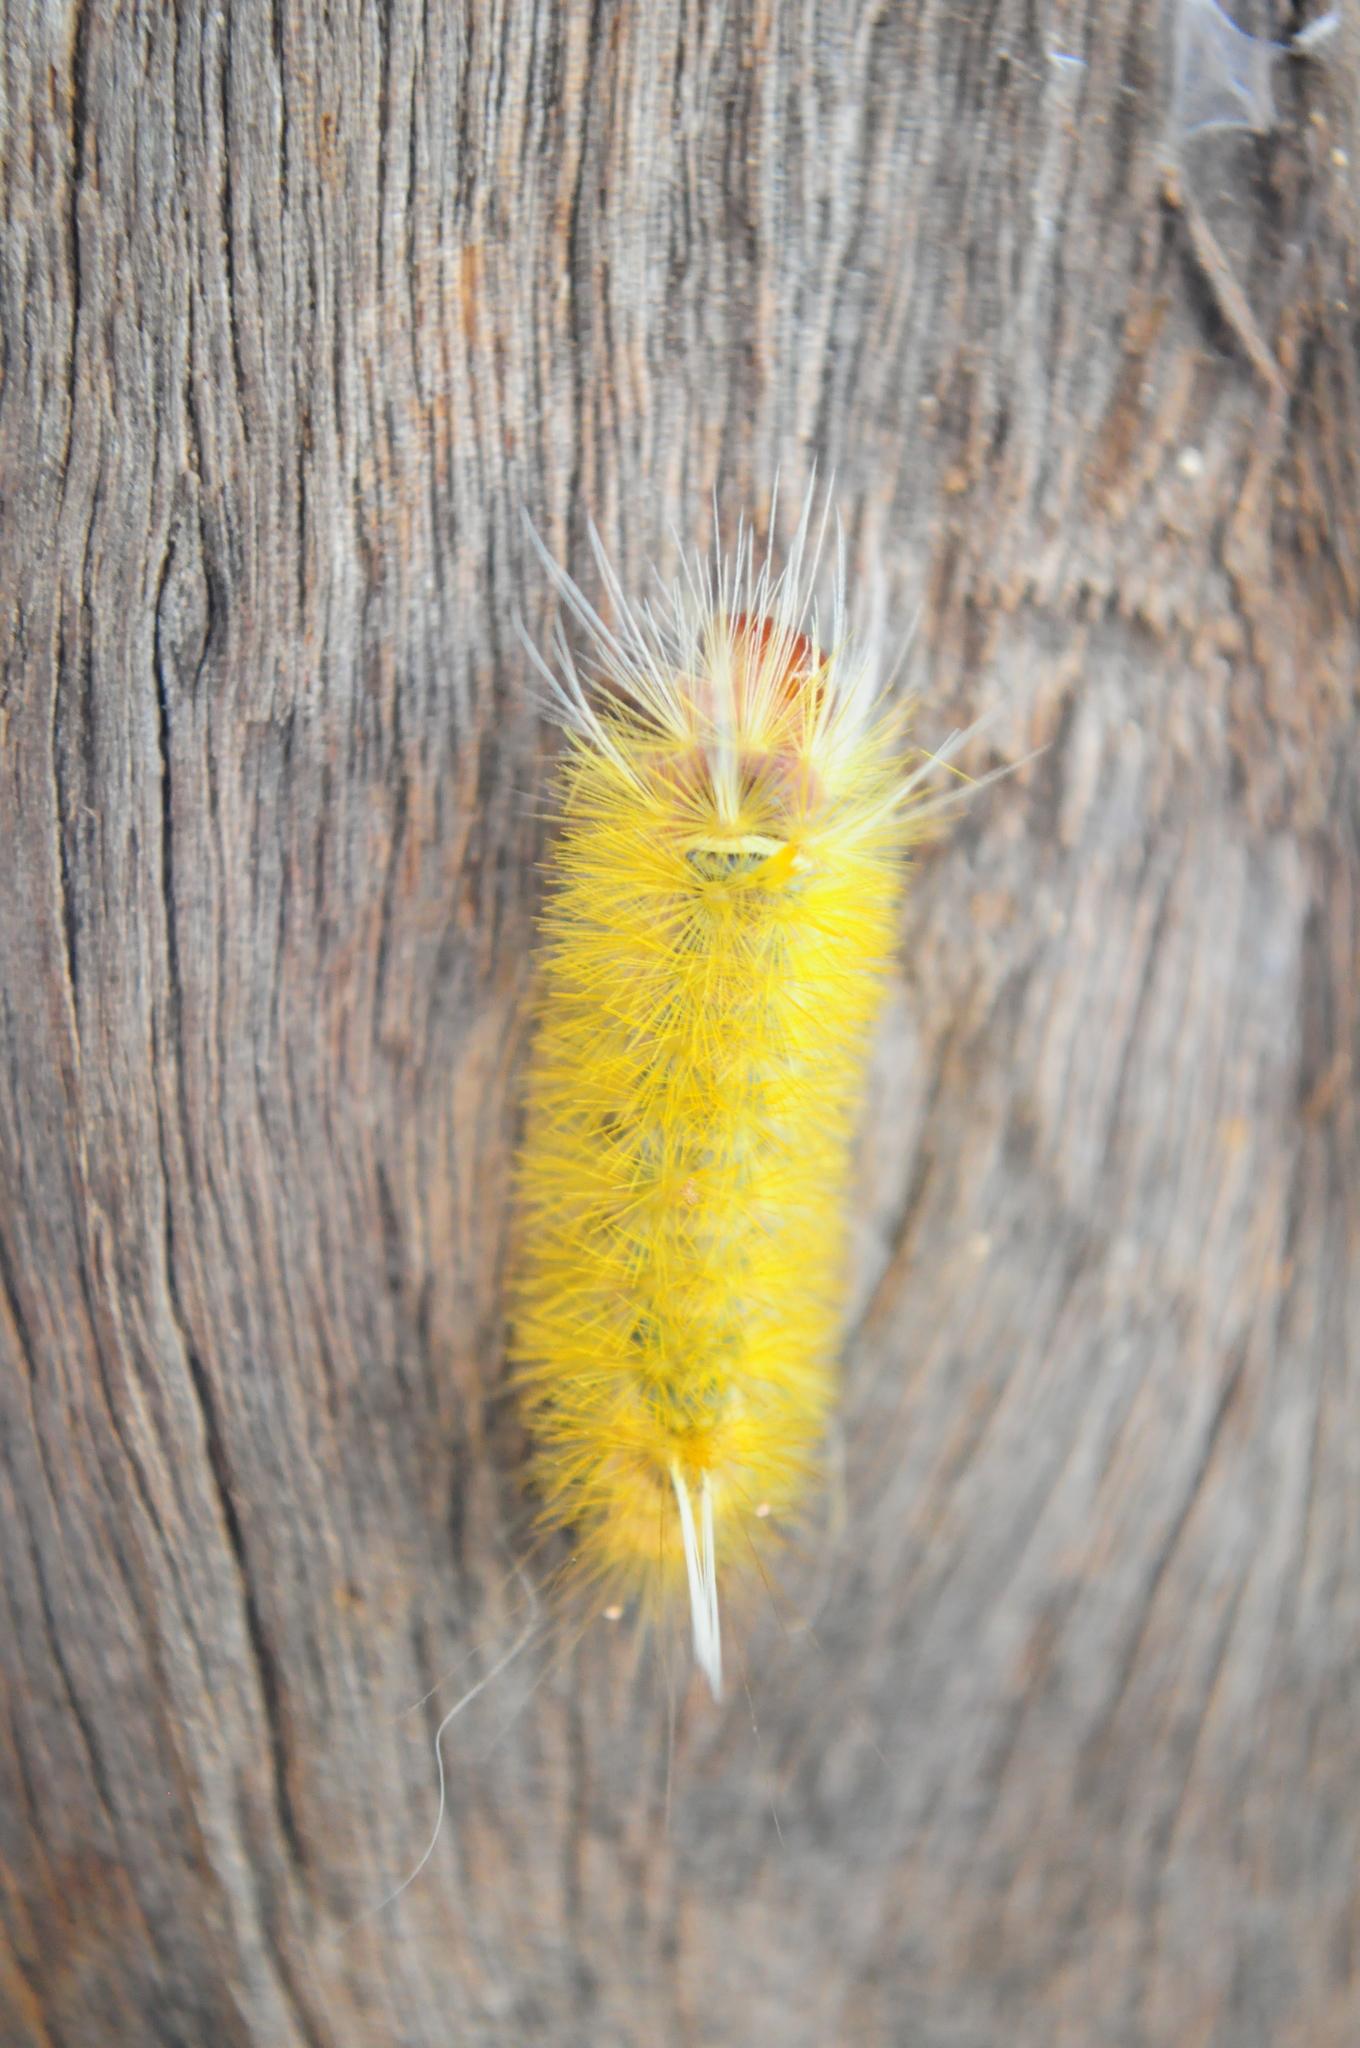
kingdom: Animalia
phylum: Arthropoda
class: Insecta
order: Lepidoptera
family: Erebidae
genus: Lophocampa
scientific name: Lophocampa annulosa
